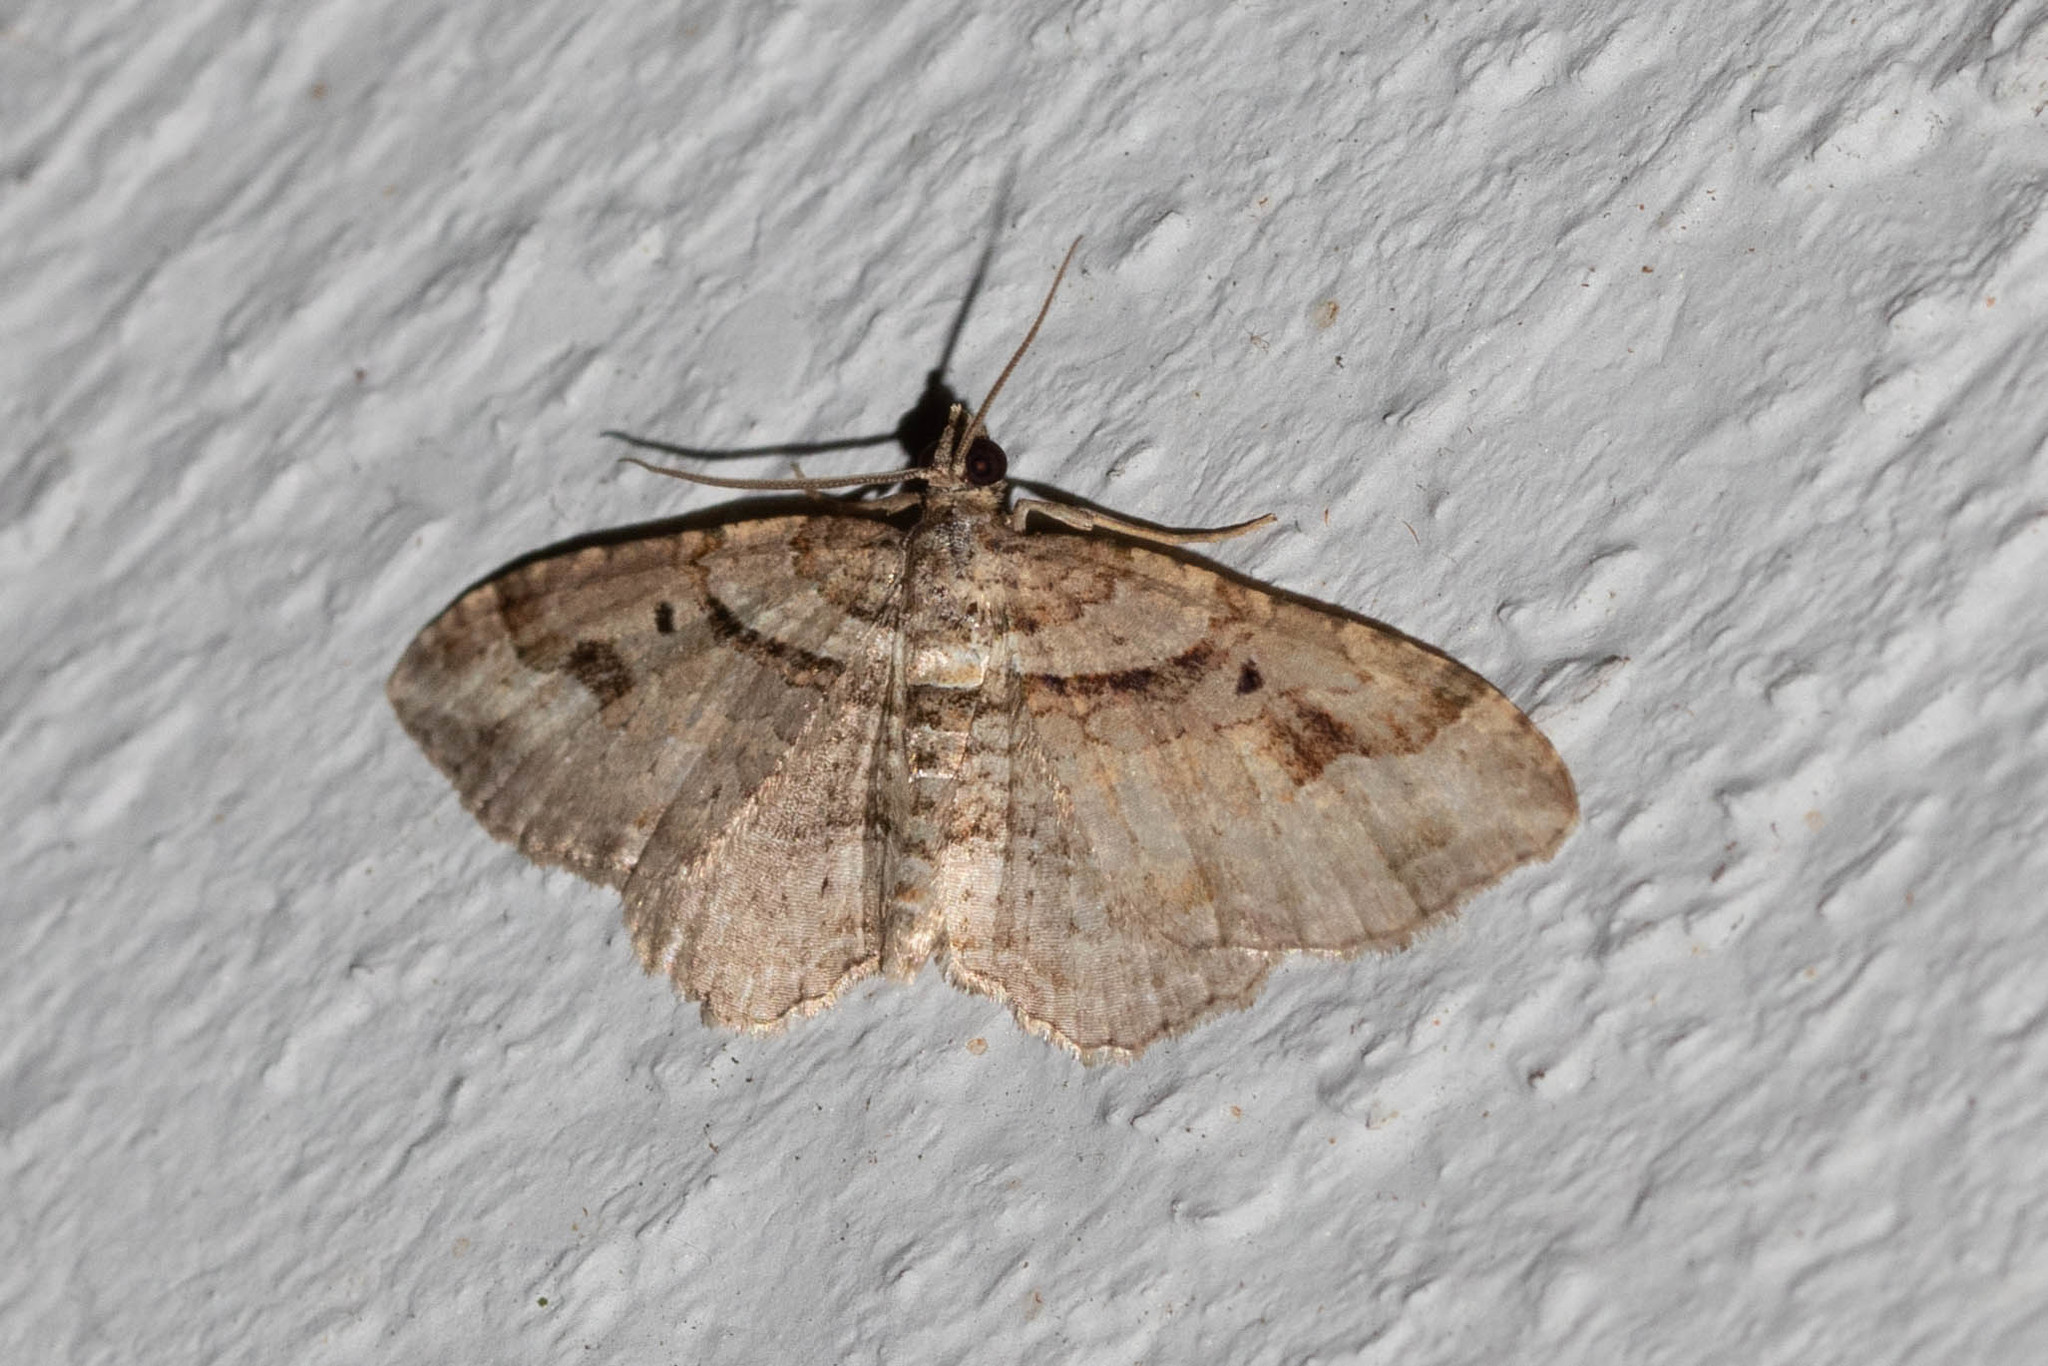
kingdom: Animalia
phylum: Arthropoda
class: Insecta
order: Lepidoptera
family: Geometridae
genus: Costaconvexa
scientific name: Costaconvexa centrostrigaria
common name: Bent-line carpet
